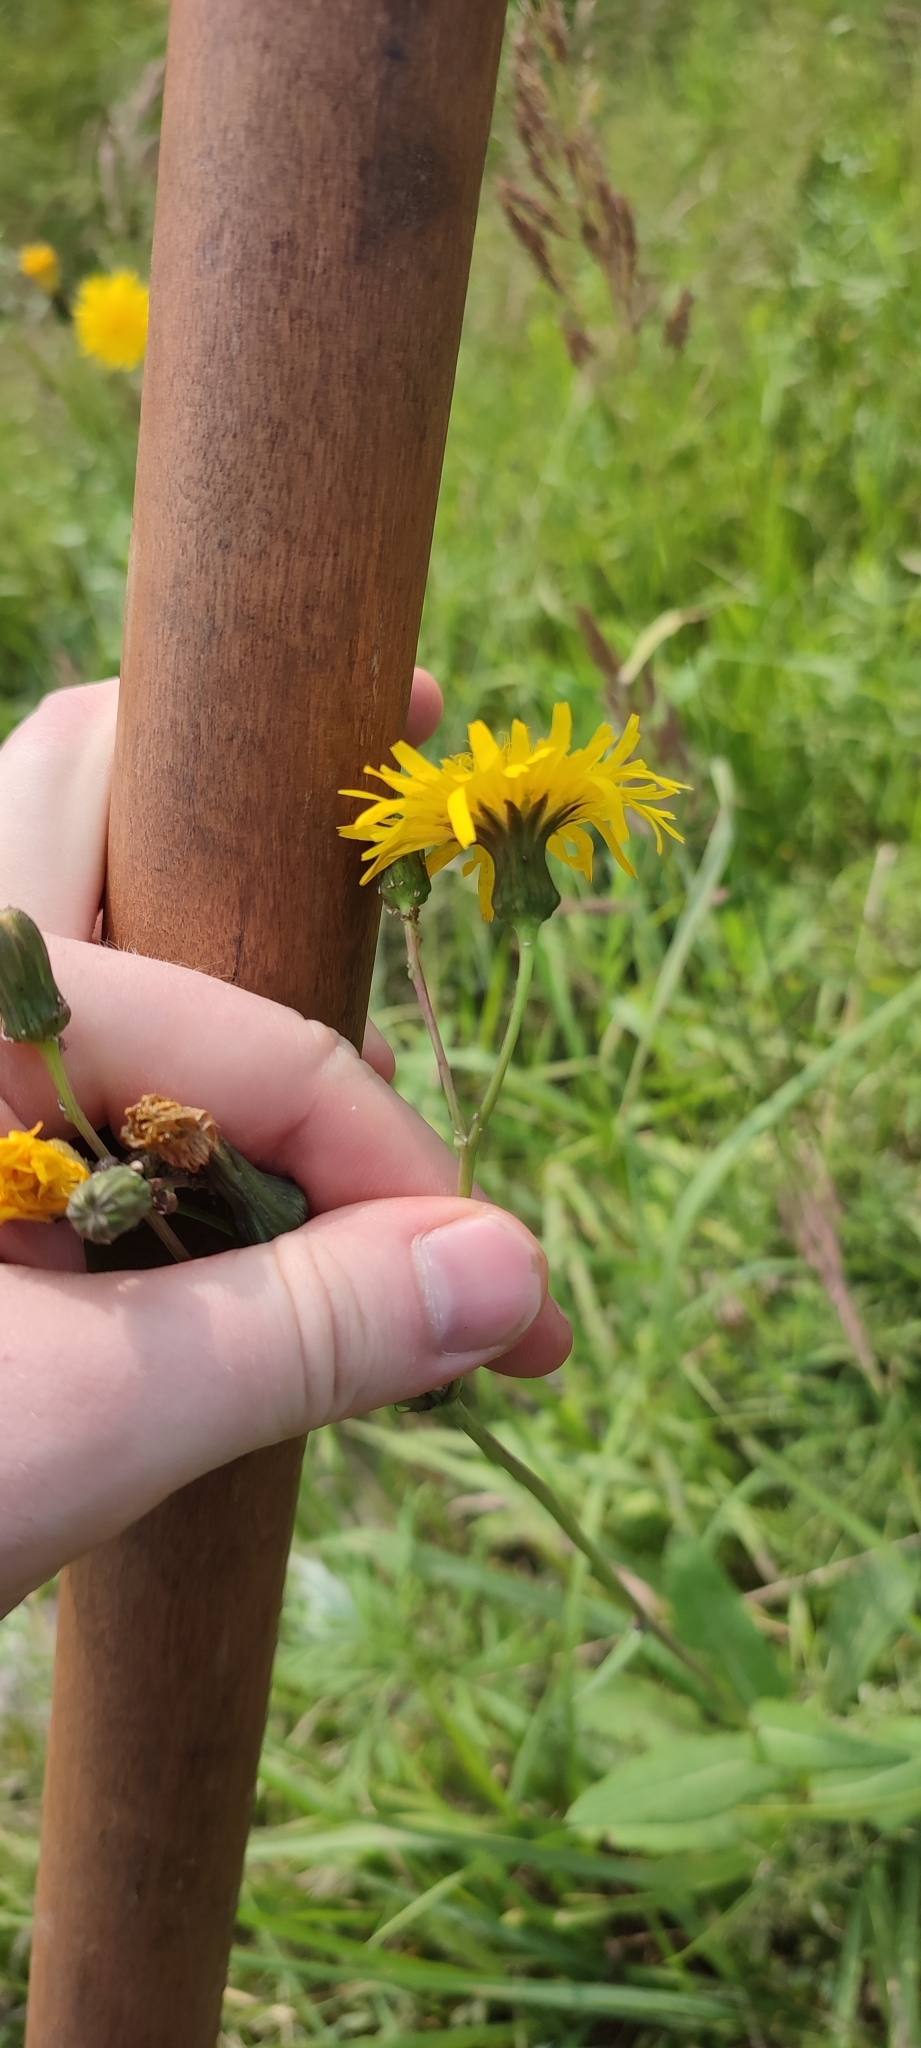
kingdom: Plantae
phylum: Tracheophyta
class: Magnoliopsida
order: Asterales
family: Asteraceae
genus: Sonchus
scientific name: Sonchus arvensis
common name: Perennial sow-thistle
